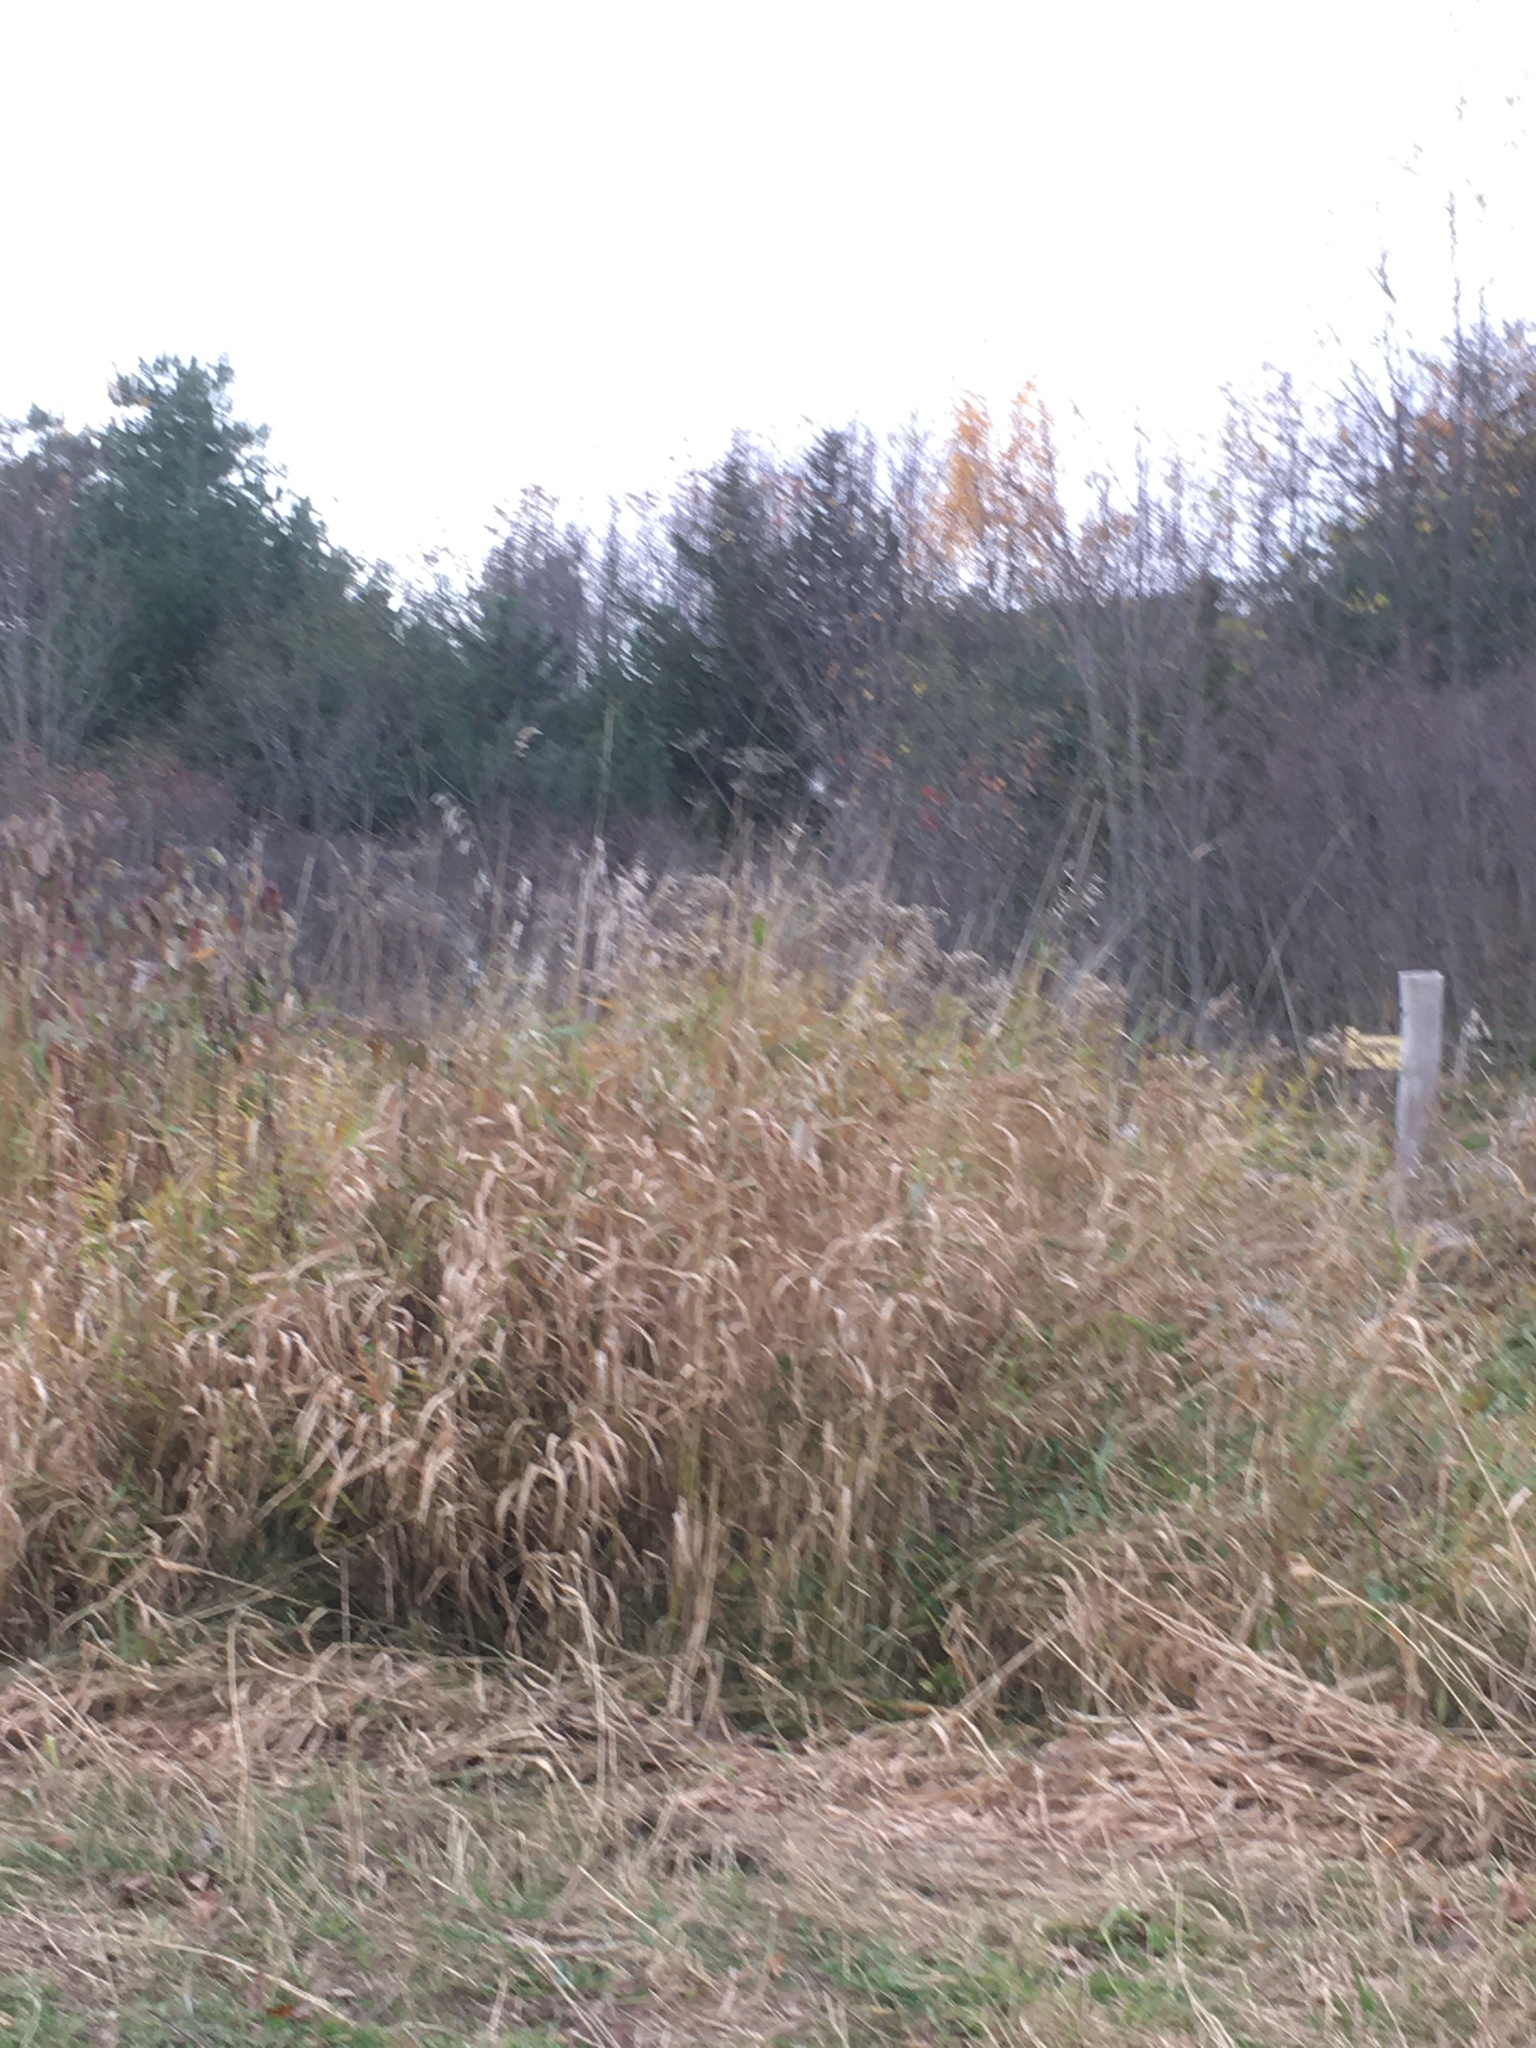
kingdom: Plantae
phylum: Tracheophyta
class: Liliopsida
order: Poales
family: Poaceae
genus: Phalaris
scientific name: Phalaris arundinacea
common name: Reed canary-grass
